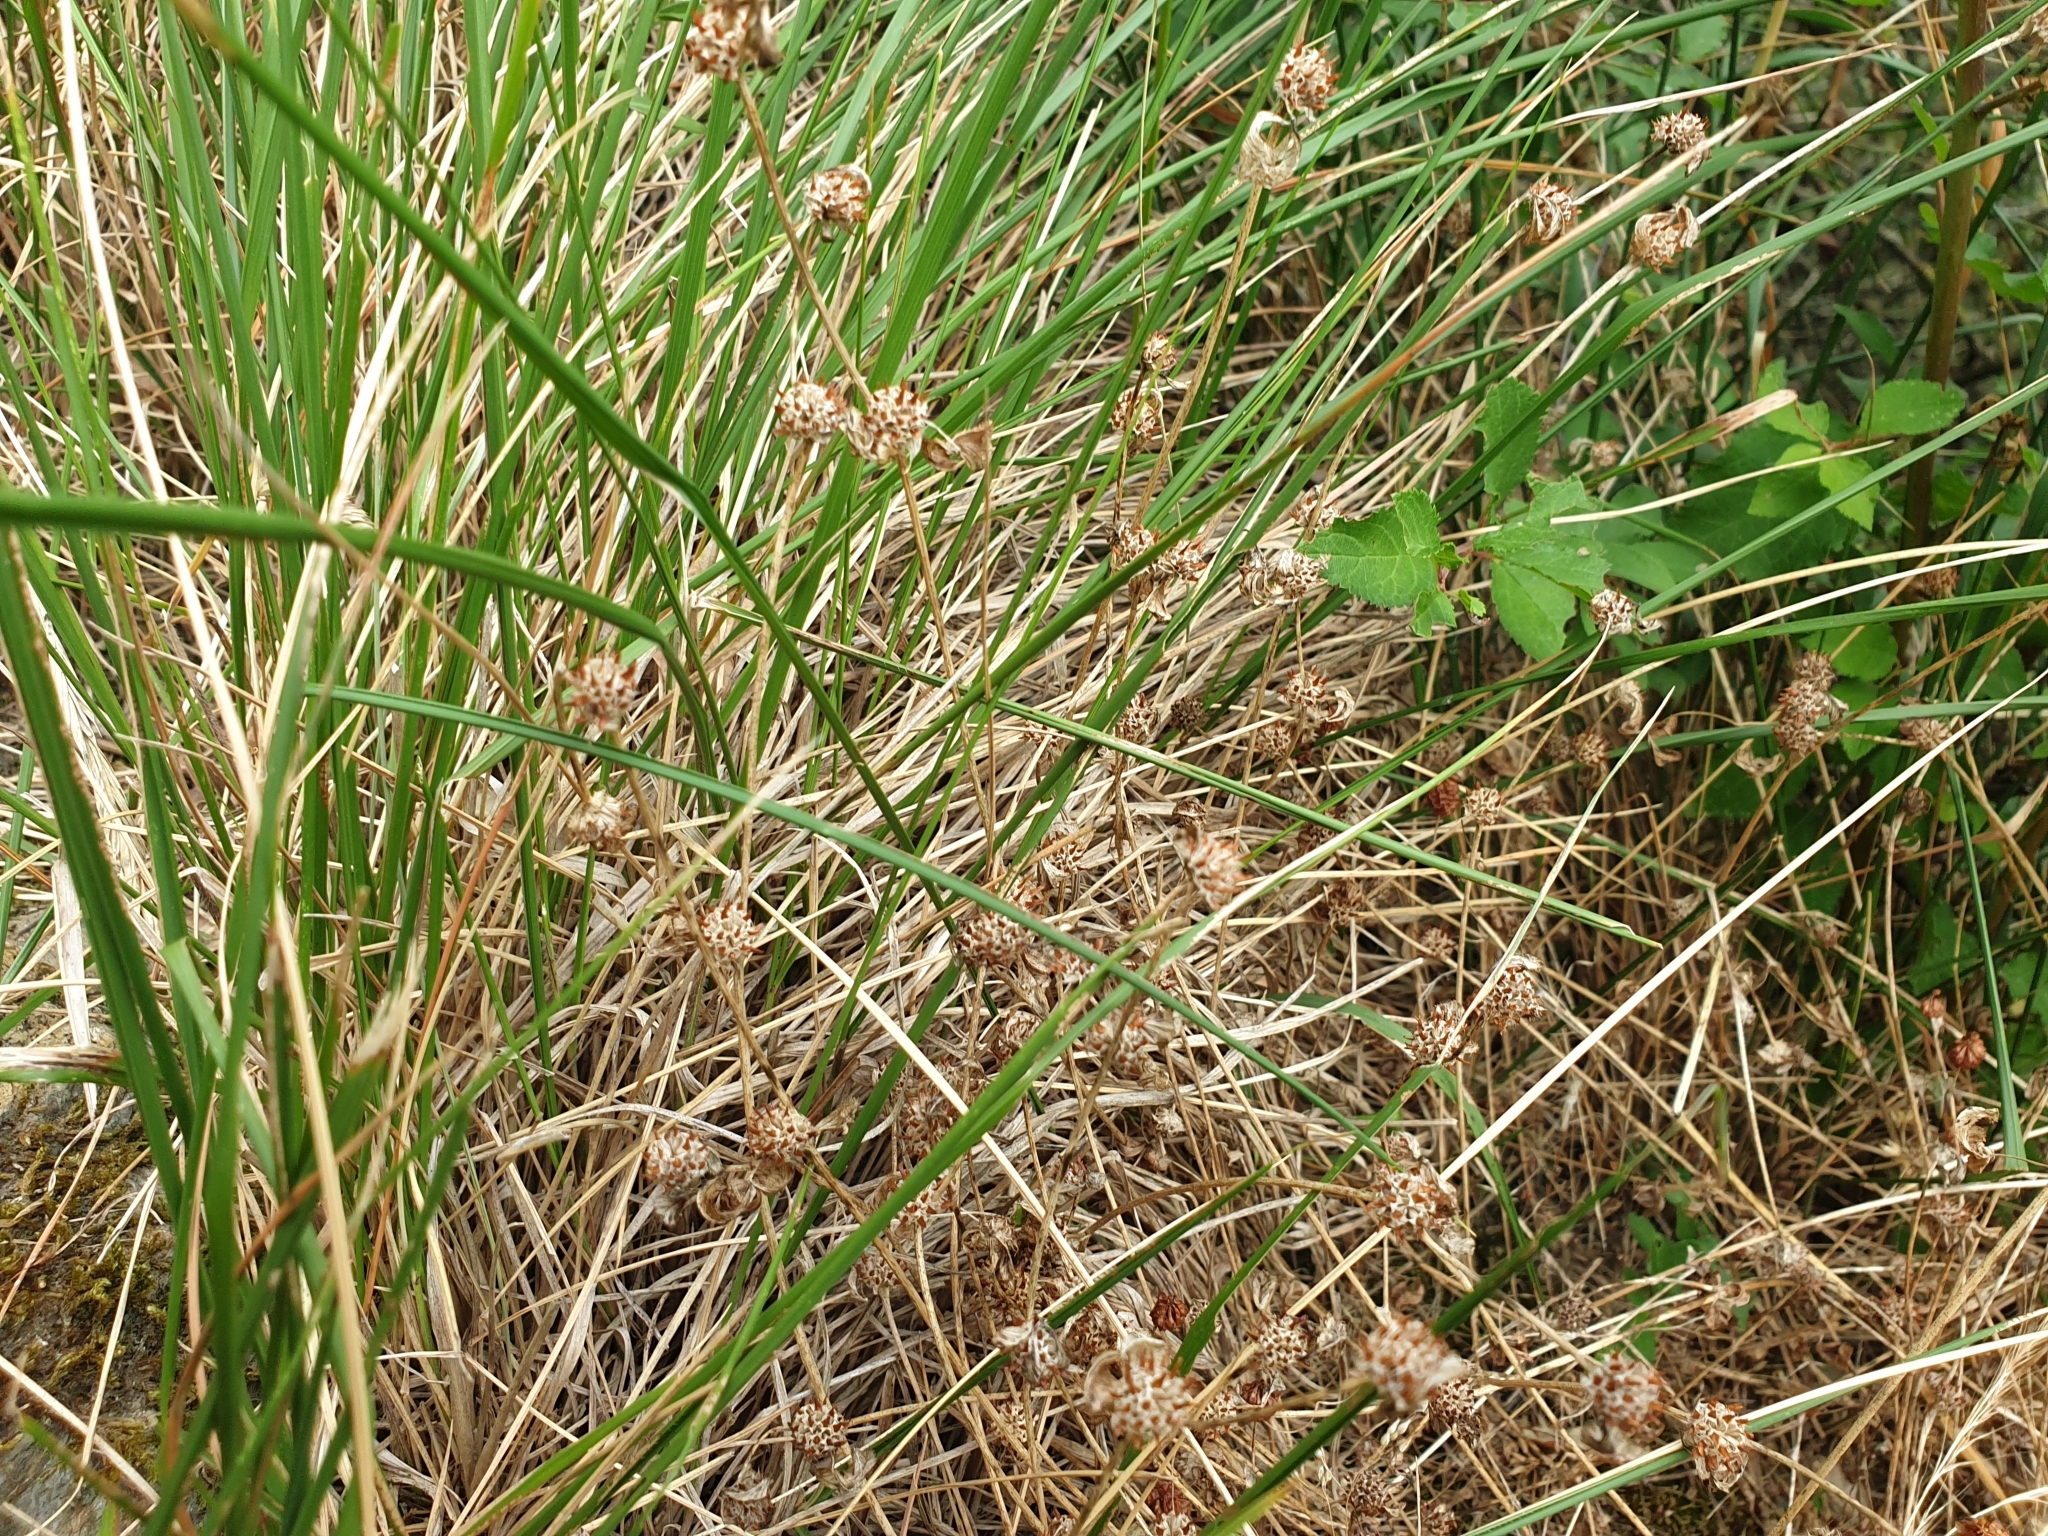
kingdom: Plantae
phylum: Tracheophyta
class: Magnoliopsida
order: Fabales
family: Fabaceae
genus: Trifolium
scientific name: Trifolium glomeratum
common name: Clustered clover
